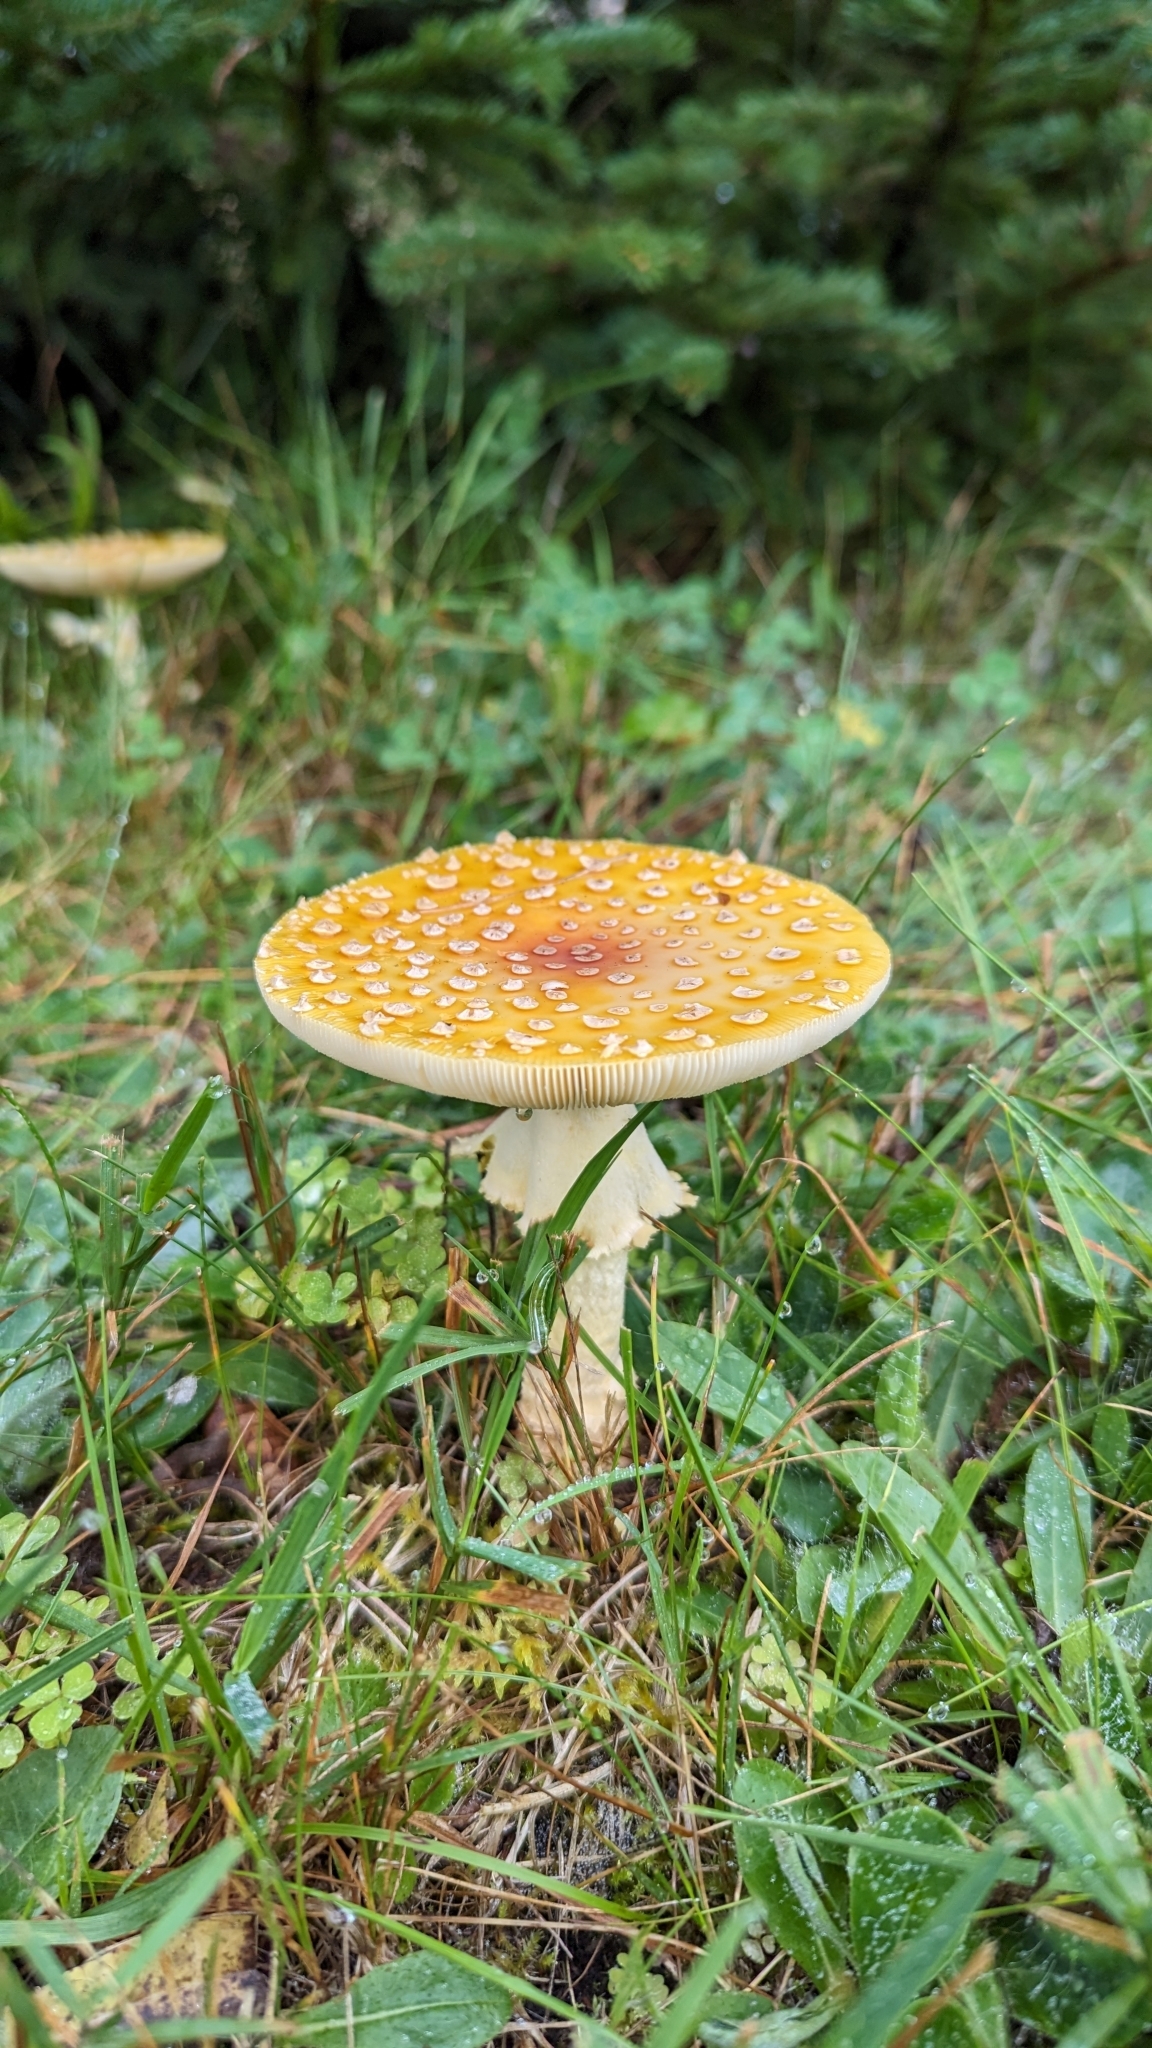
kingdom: Fungi
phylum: Basidiomycota
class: Agaricomycetes
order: Agaricales
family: Amanitaceae
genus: Amanita
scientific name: Amanita muscaria
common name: Fly agaric
